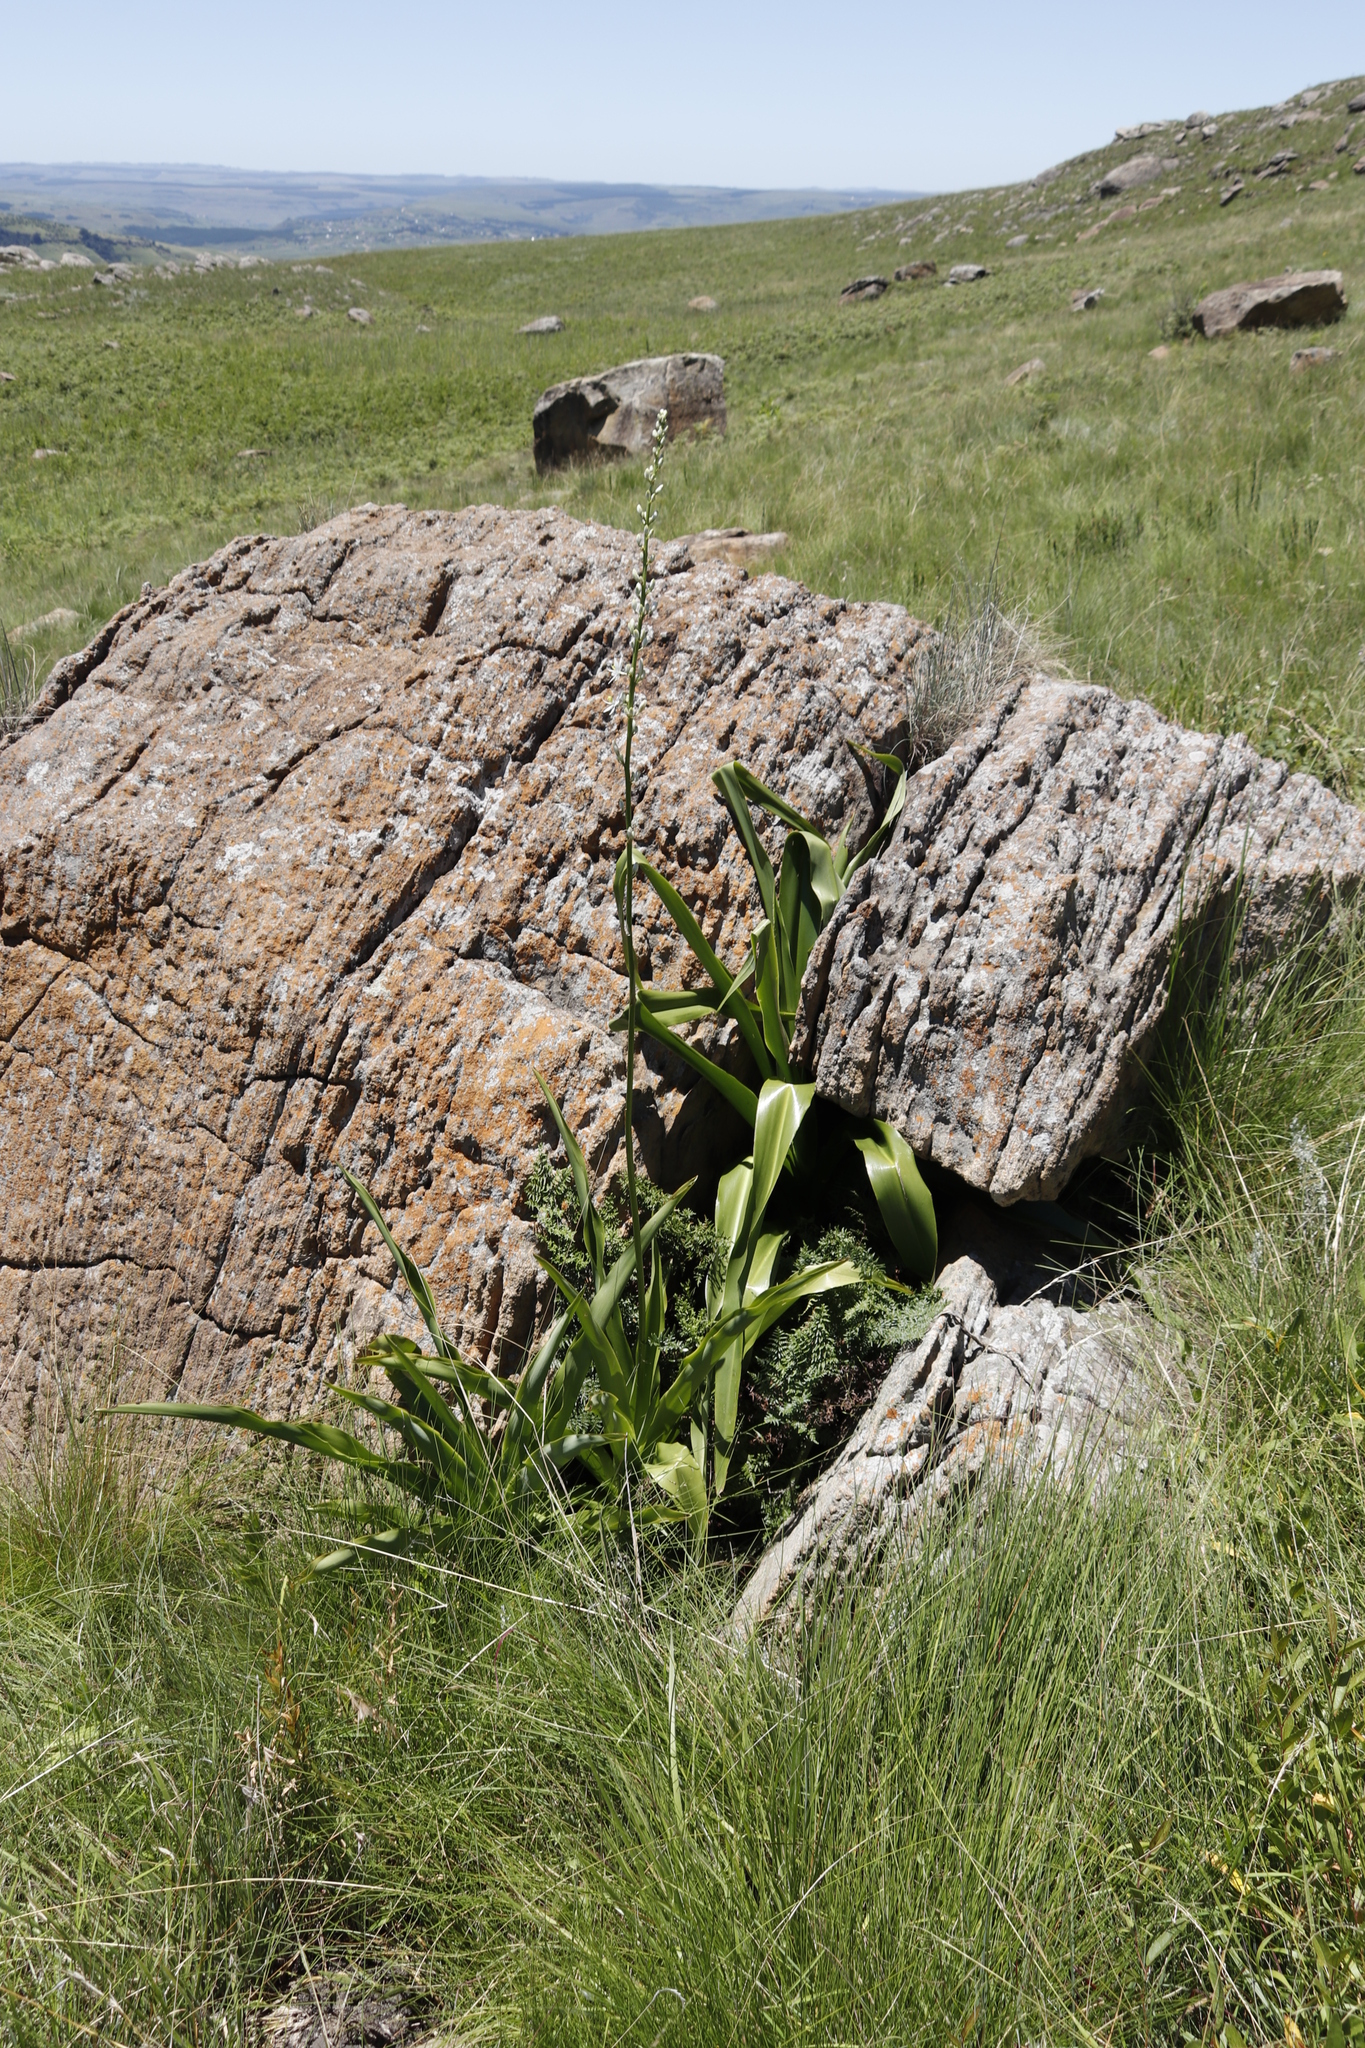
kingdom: Plantae
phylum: Tracheophyta
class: Liliopsida
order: Asparagales
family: Asparagaceae
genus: Chlorophytum
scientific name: Chlorophytum krookianum
